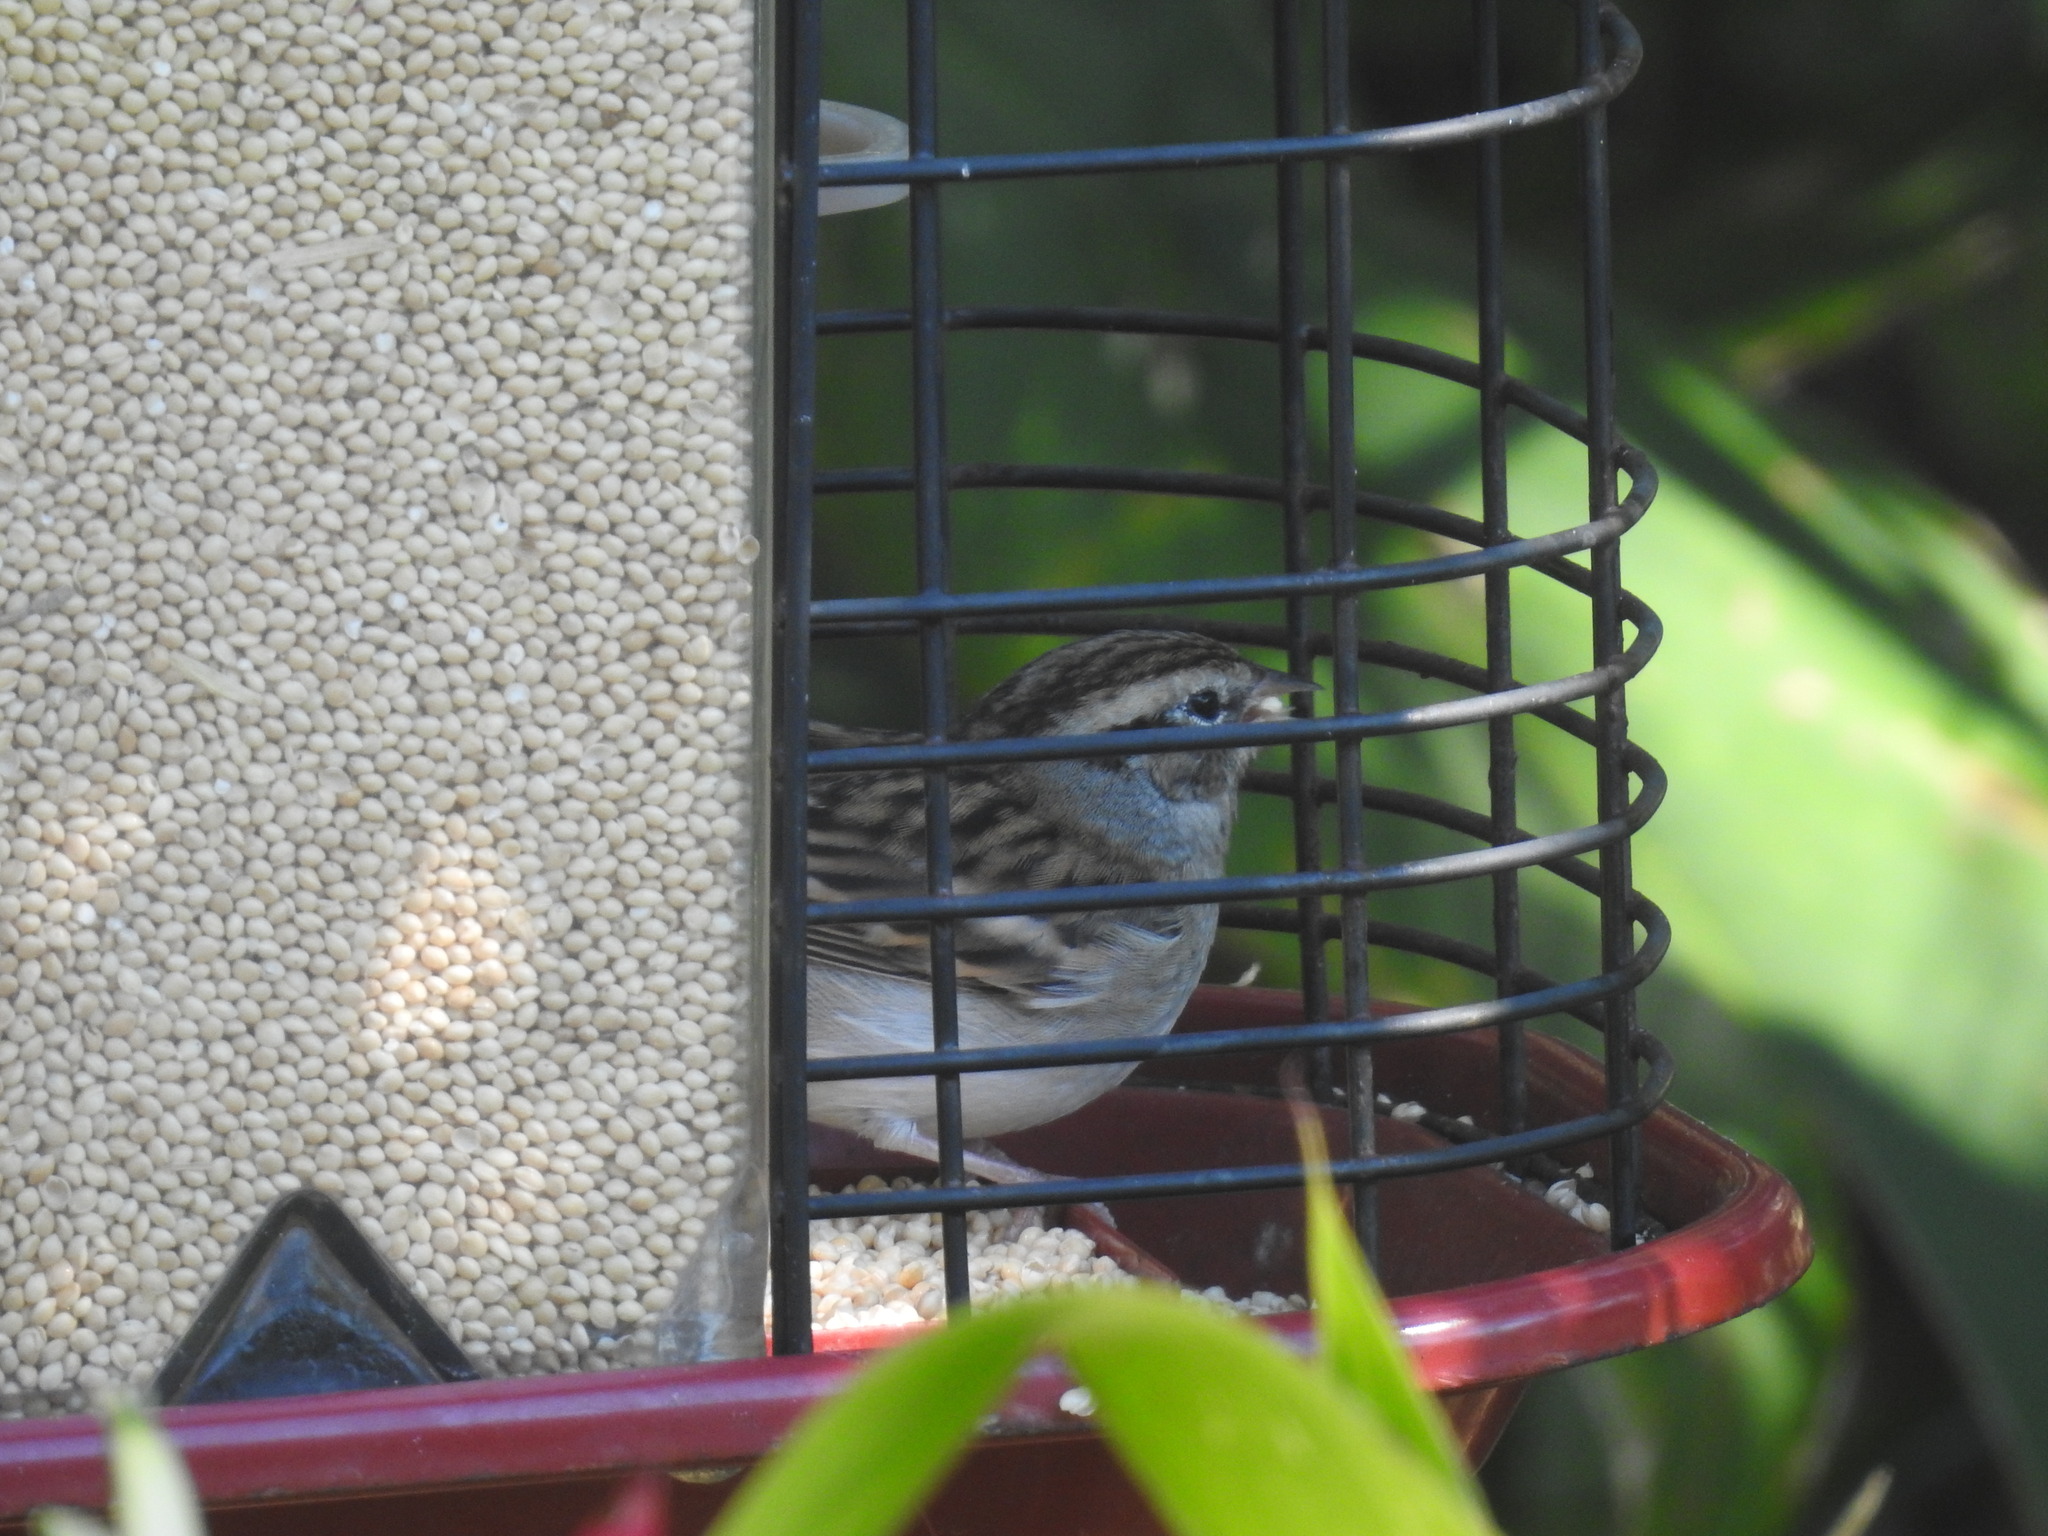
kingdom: Animalia
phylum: Chordata
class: Aves
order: Passeriformes
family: Passerellidae
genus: Spizella
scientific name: Spizella passerina
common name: Chipping sparrow
